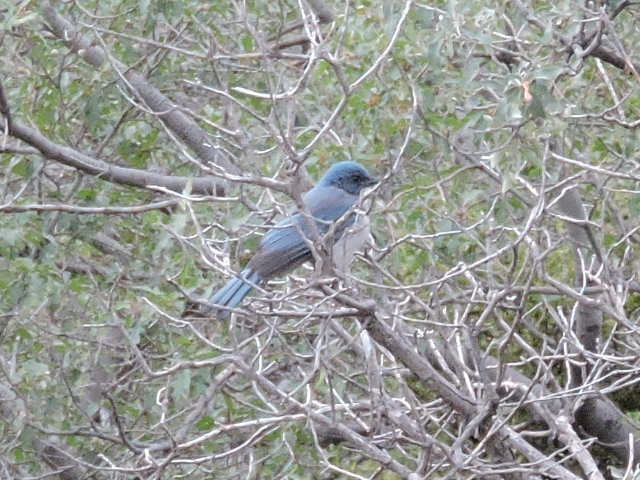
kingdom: Animalia
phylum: Chordata
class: Aves
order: Passeriformes
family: Corvidae
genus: Aphelocoma
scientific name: Aphelocoma wollweberi
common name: Mexican jay
